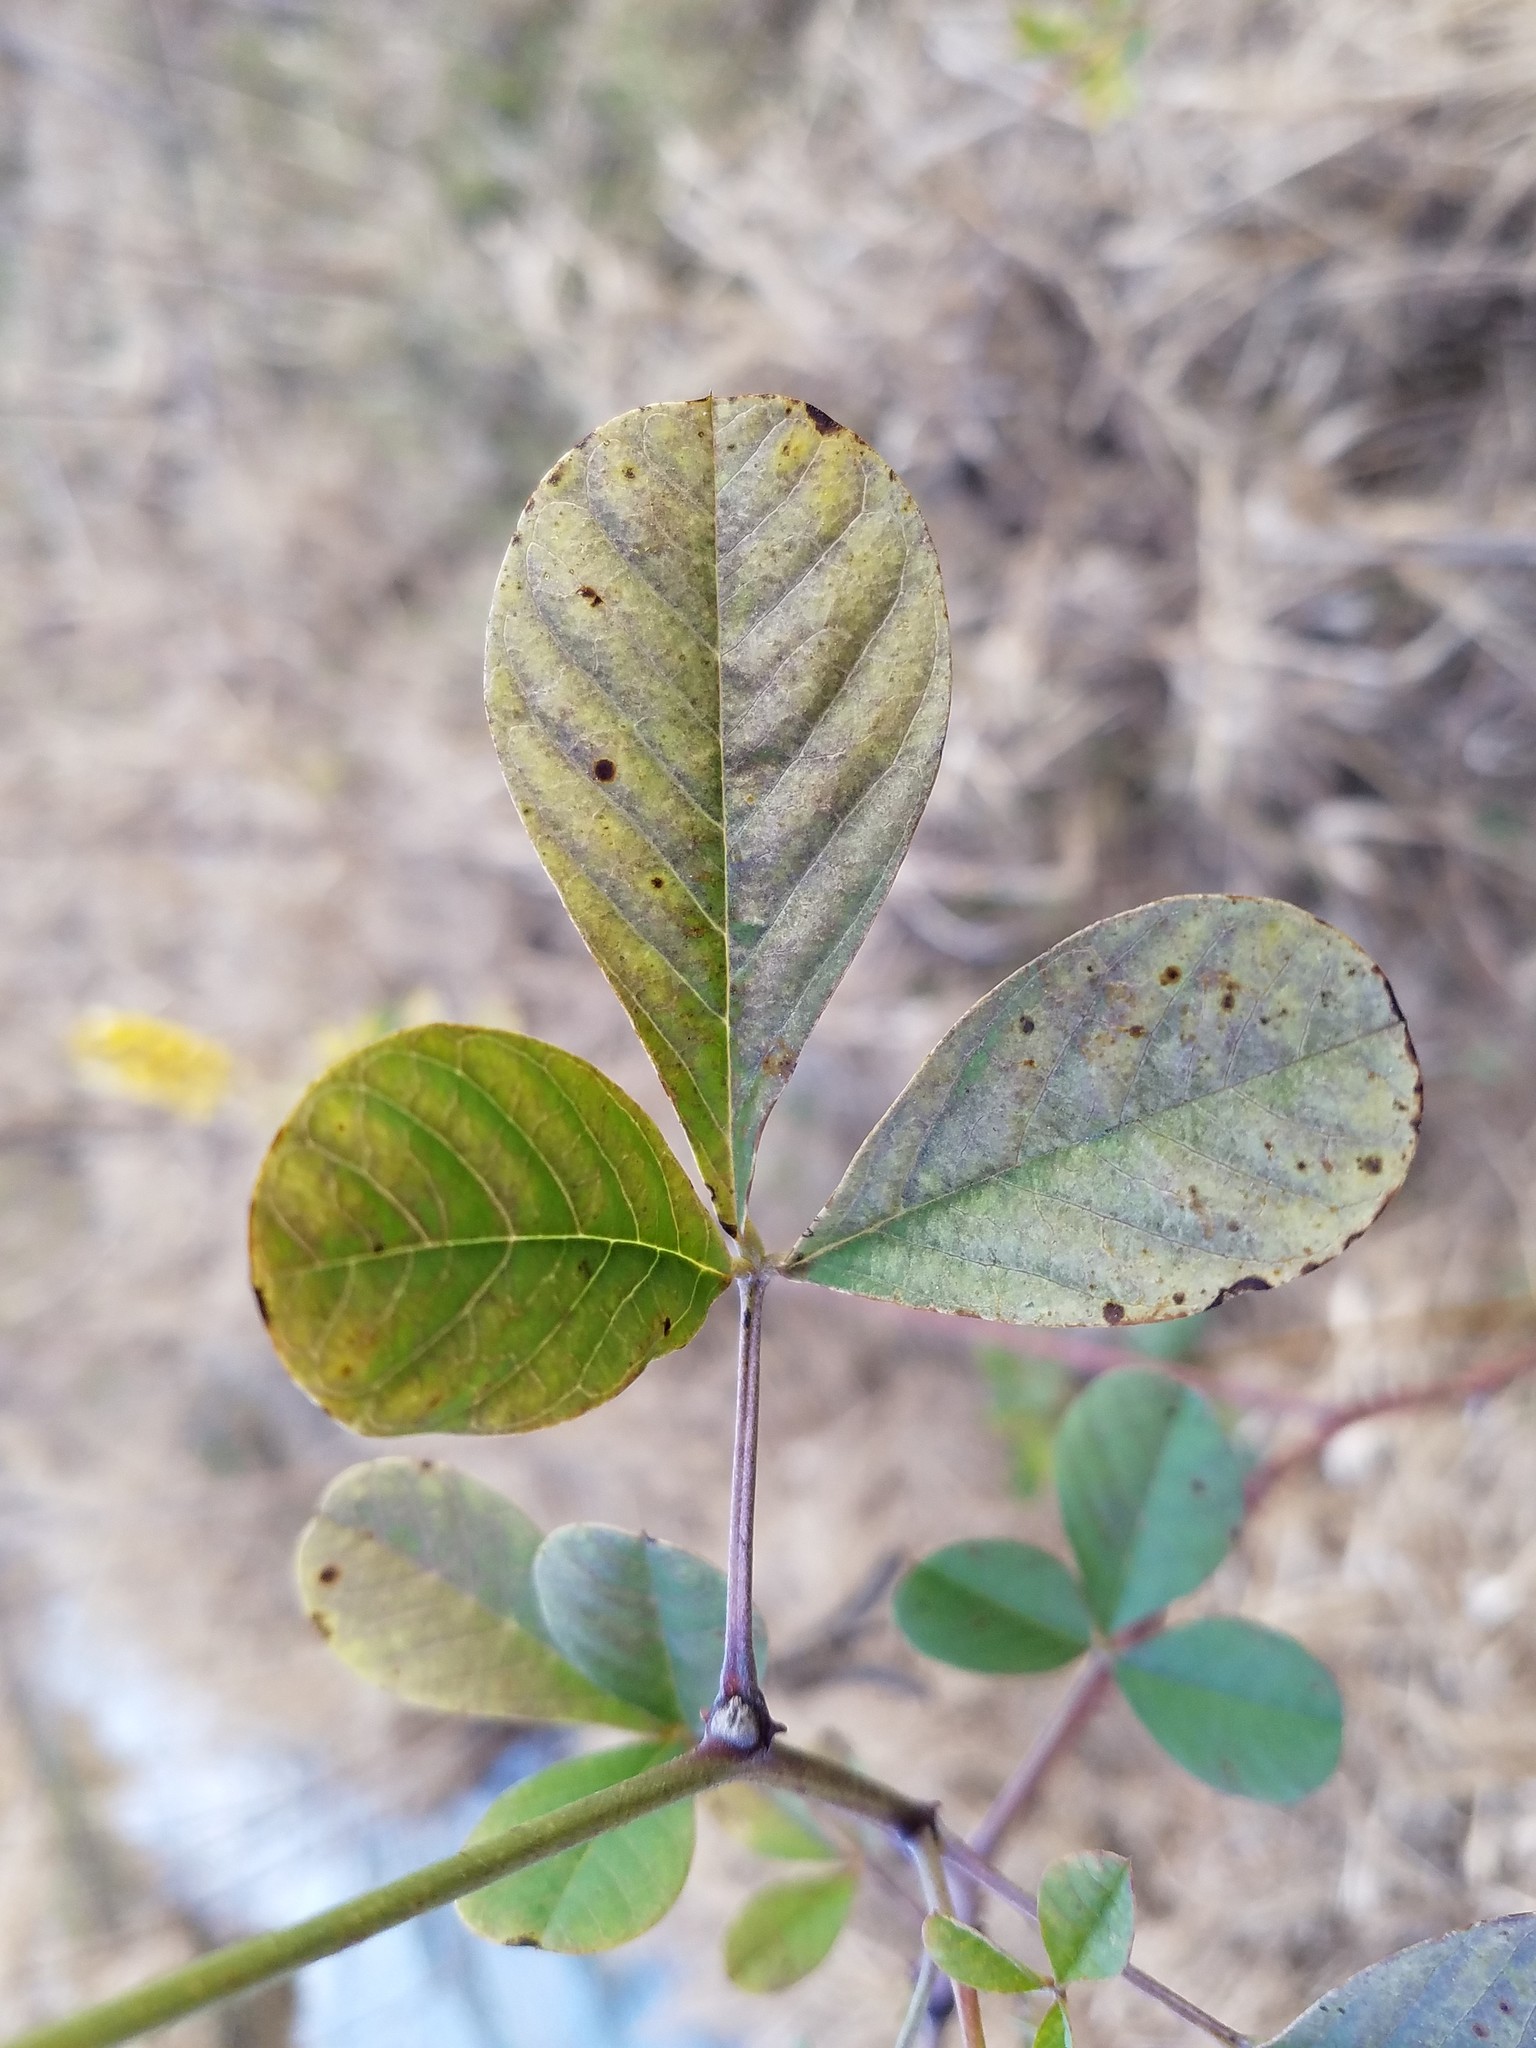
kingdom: Plantae
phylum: Tracheophyta
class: Magnoliopsida
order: Fabales
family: Fabaceae
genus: Crotalaria
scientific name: Crotalaria pallida
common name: Smooth rattlebox
